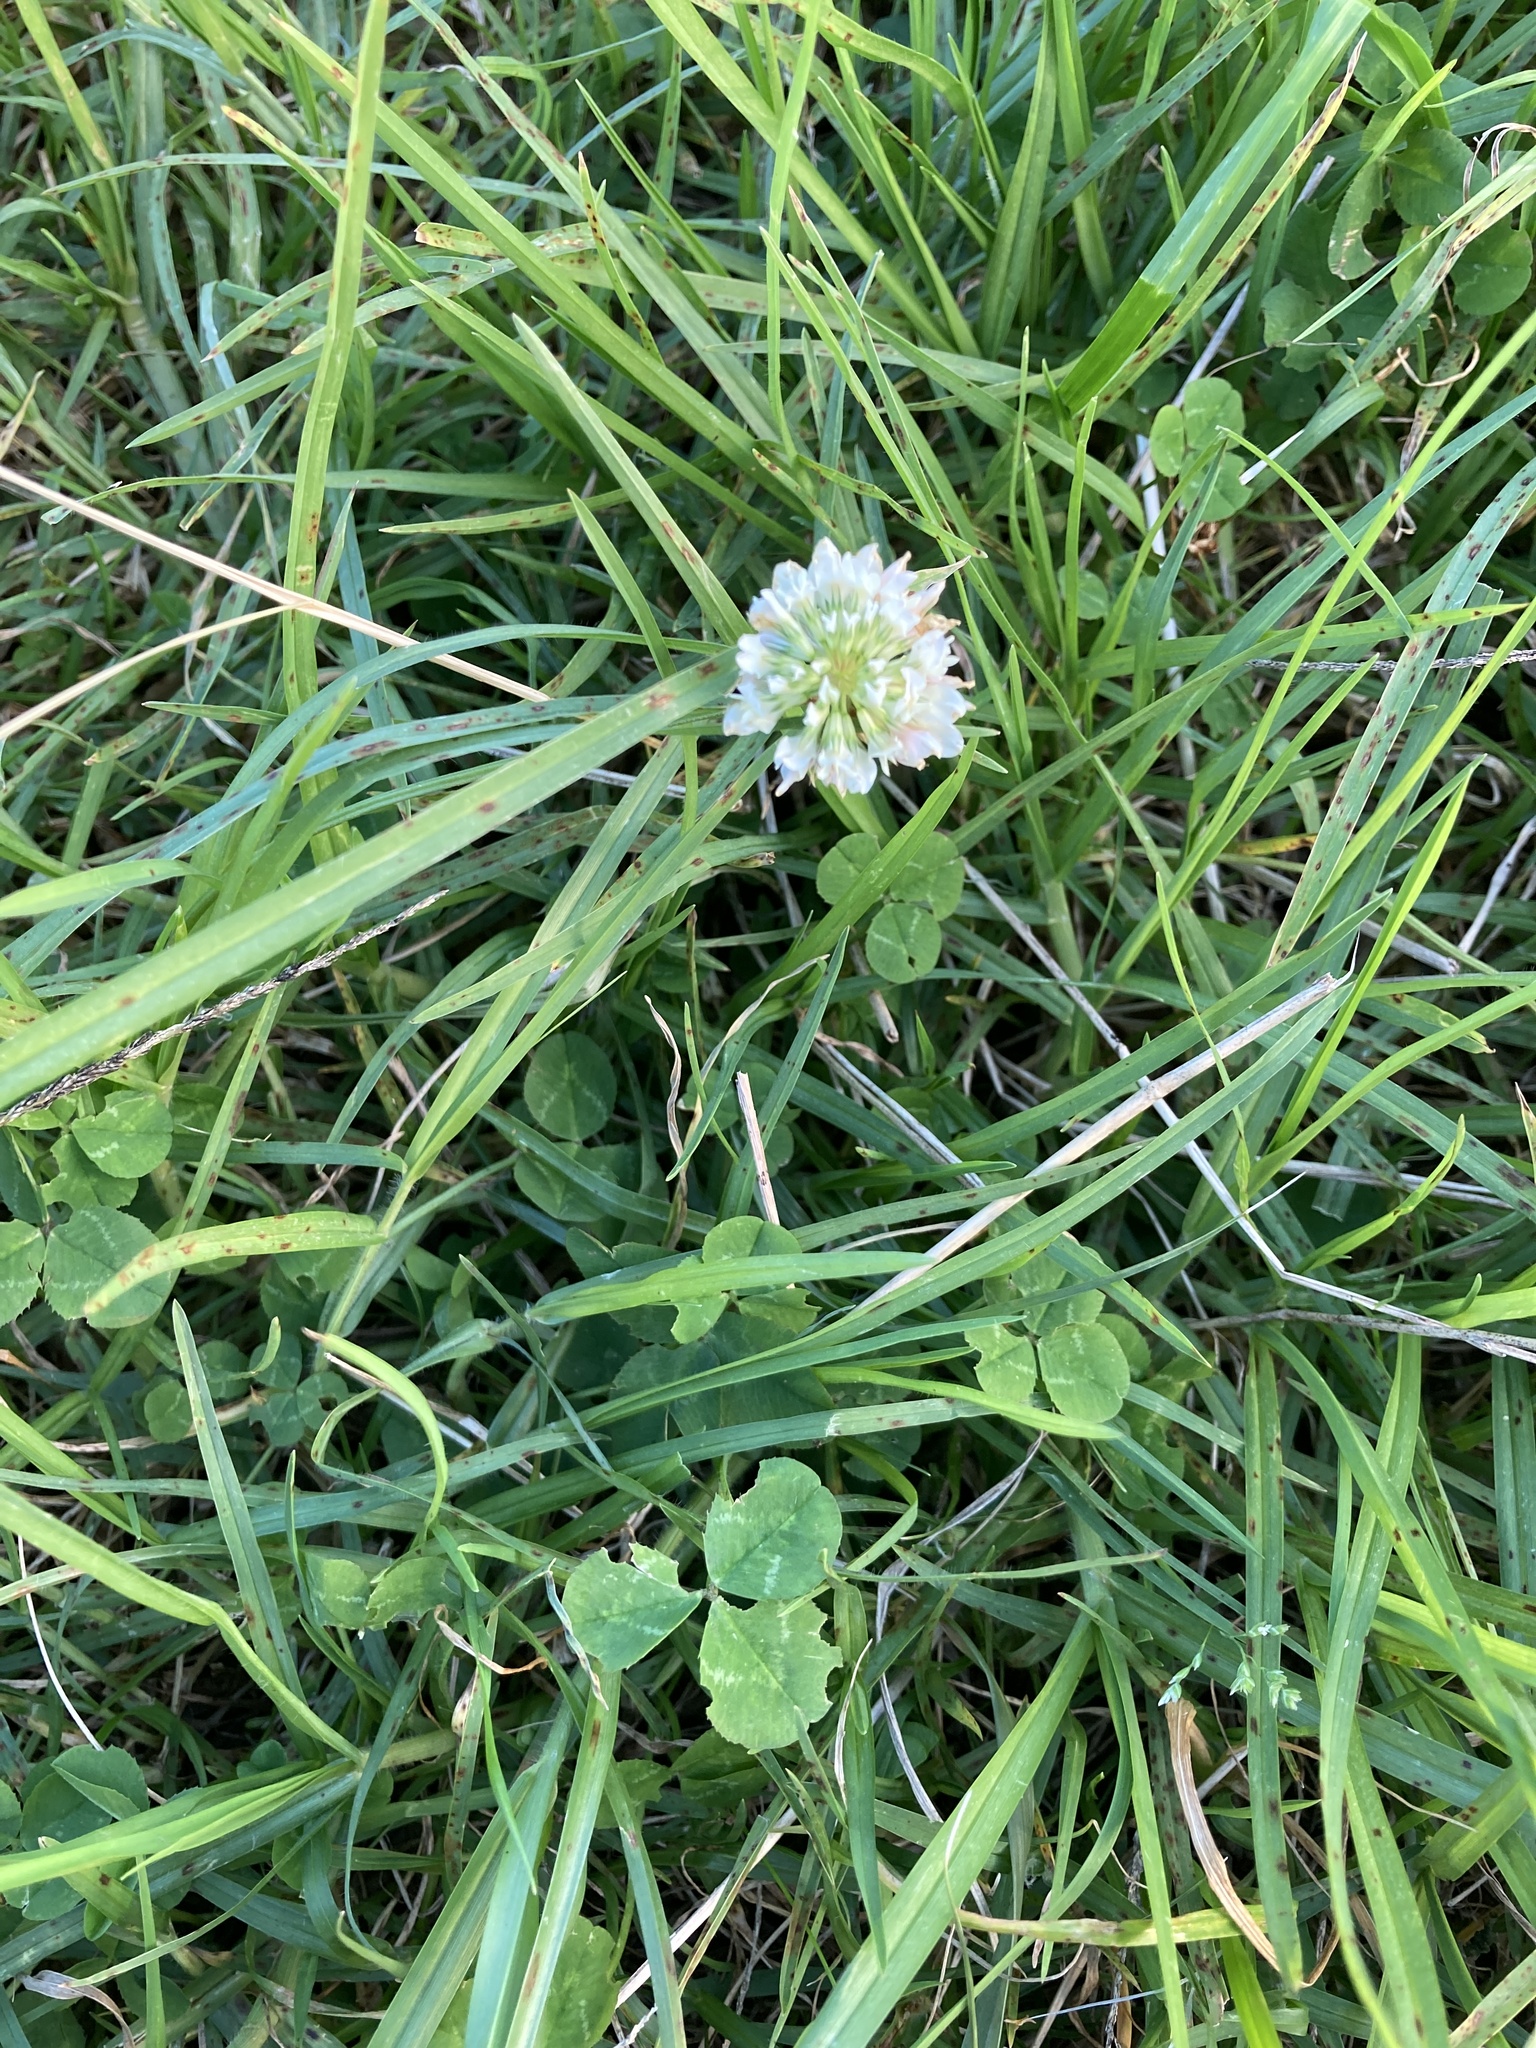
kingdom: Plantae
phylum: Tracheophyta
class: Magnoliopsida
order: Fabales
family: Fabaceae
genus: Trifolium
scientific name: Trifolium repens
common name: White clover
